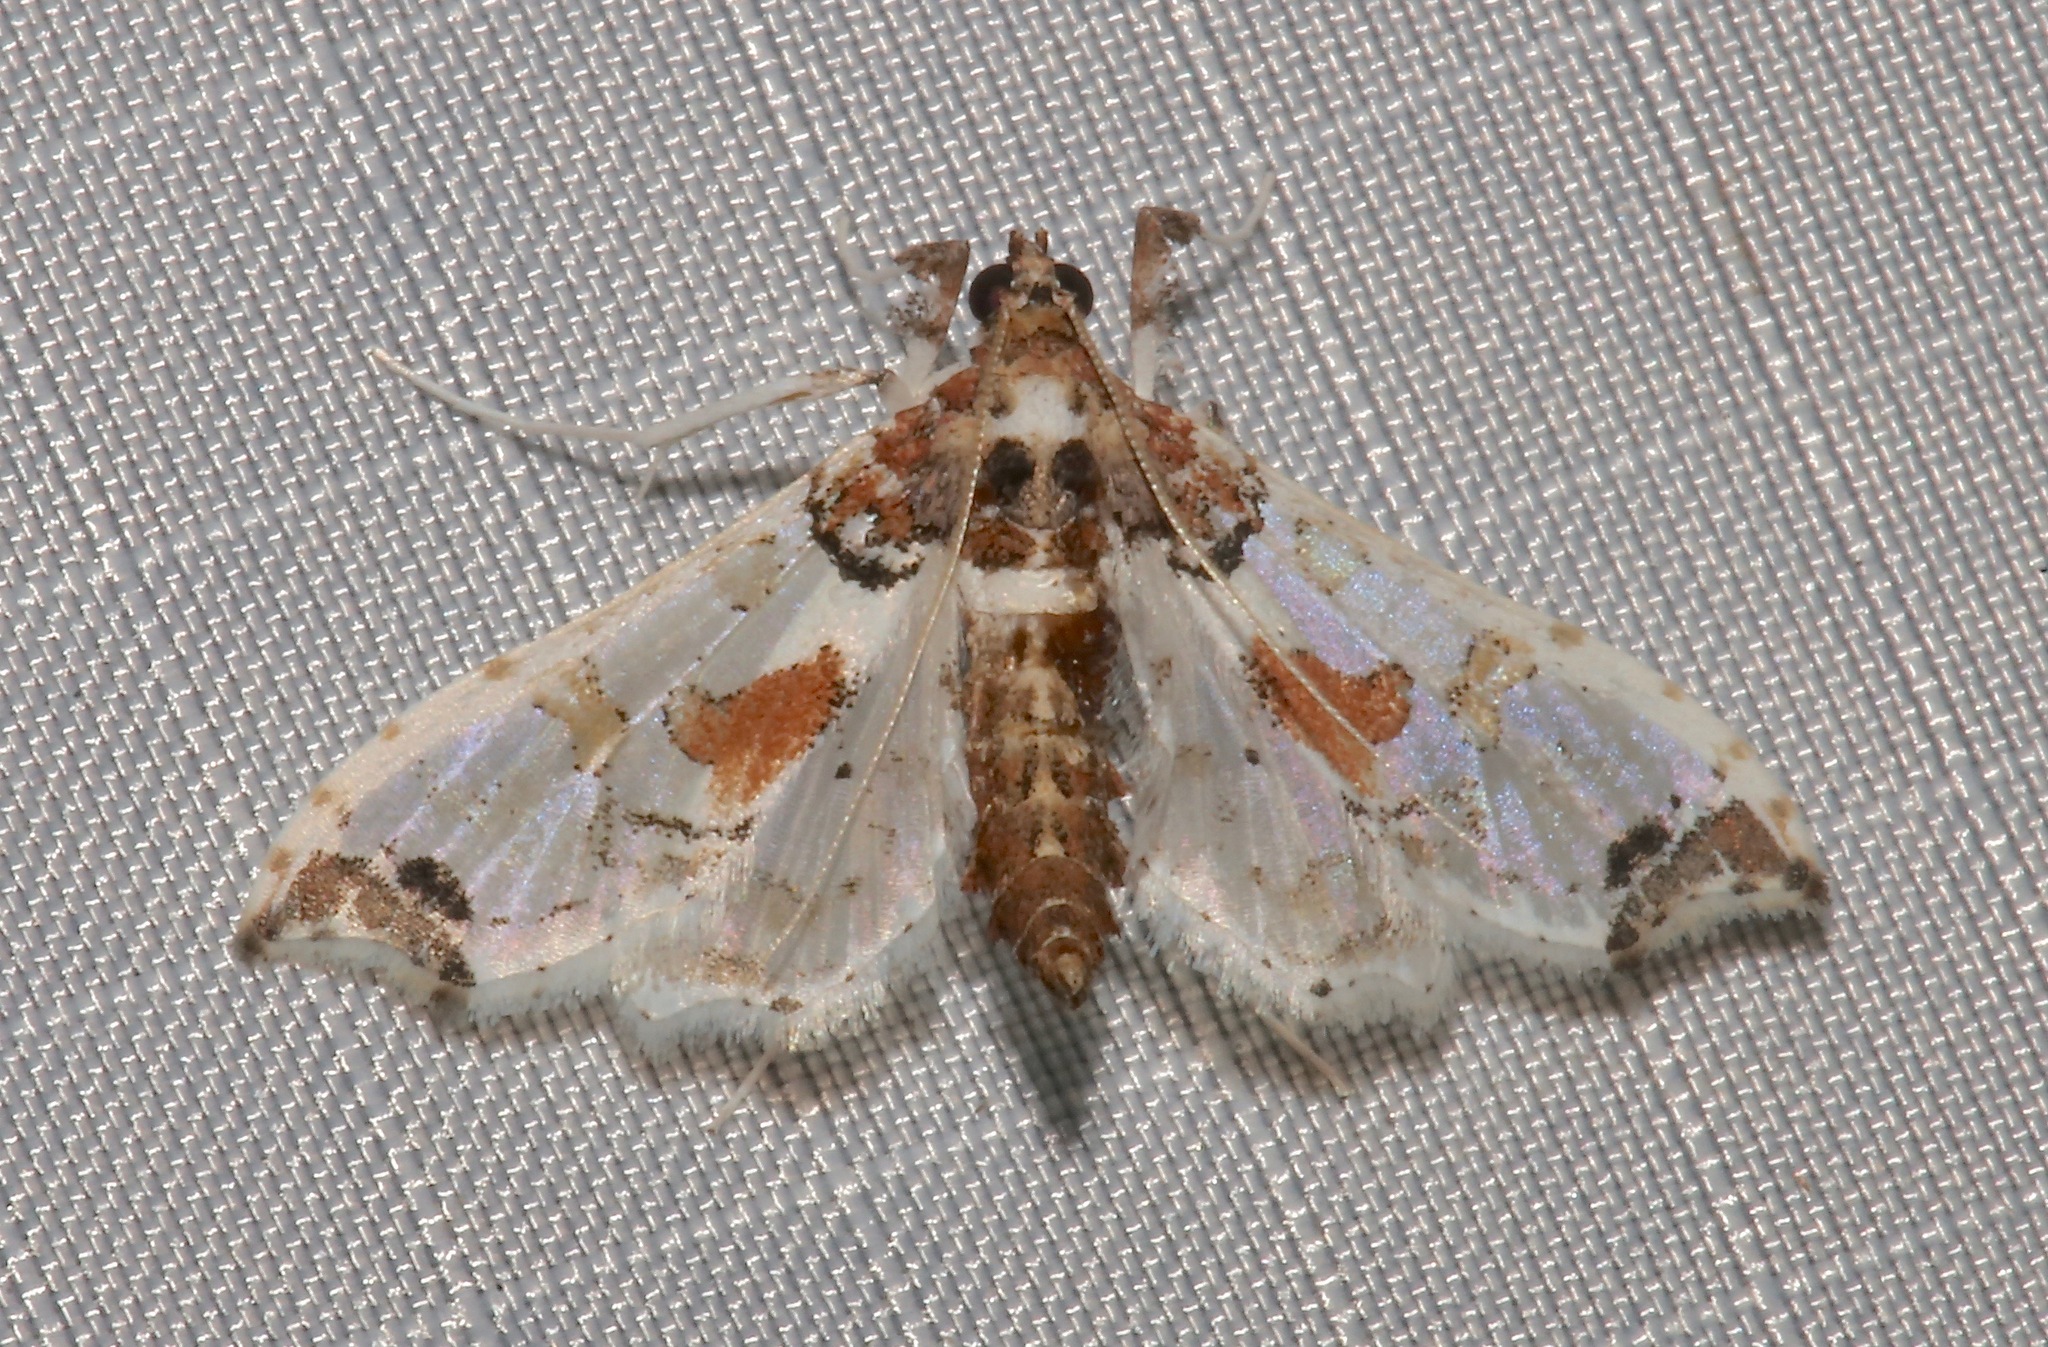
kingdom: Animalia
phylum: Arthropoda
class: Insecta
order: Lepidoptera
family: Crambidae
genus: Neoleucinodes
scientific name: Neoleucinodes elegantalis
